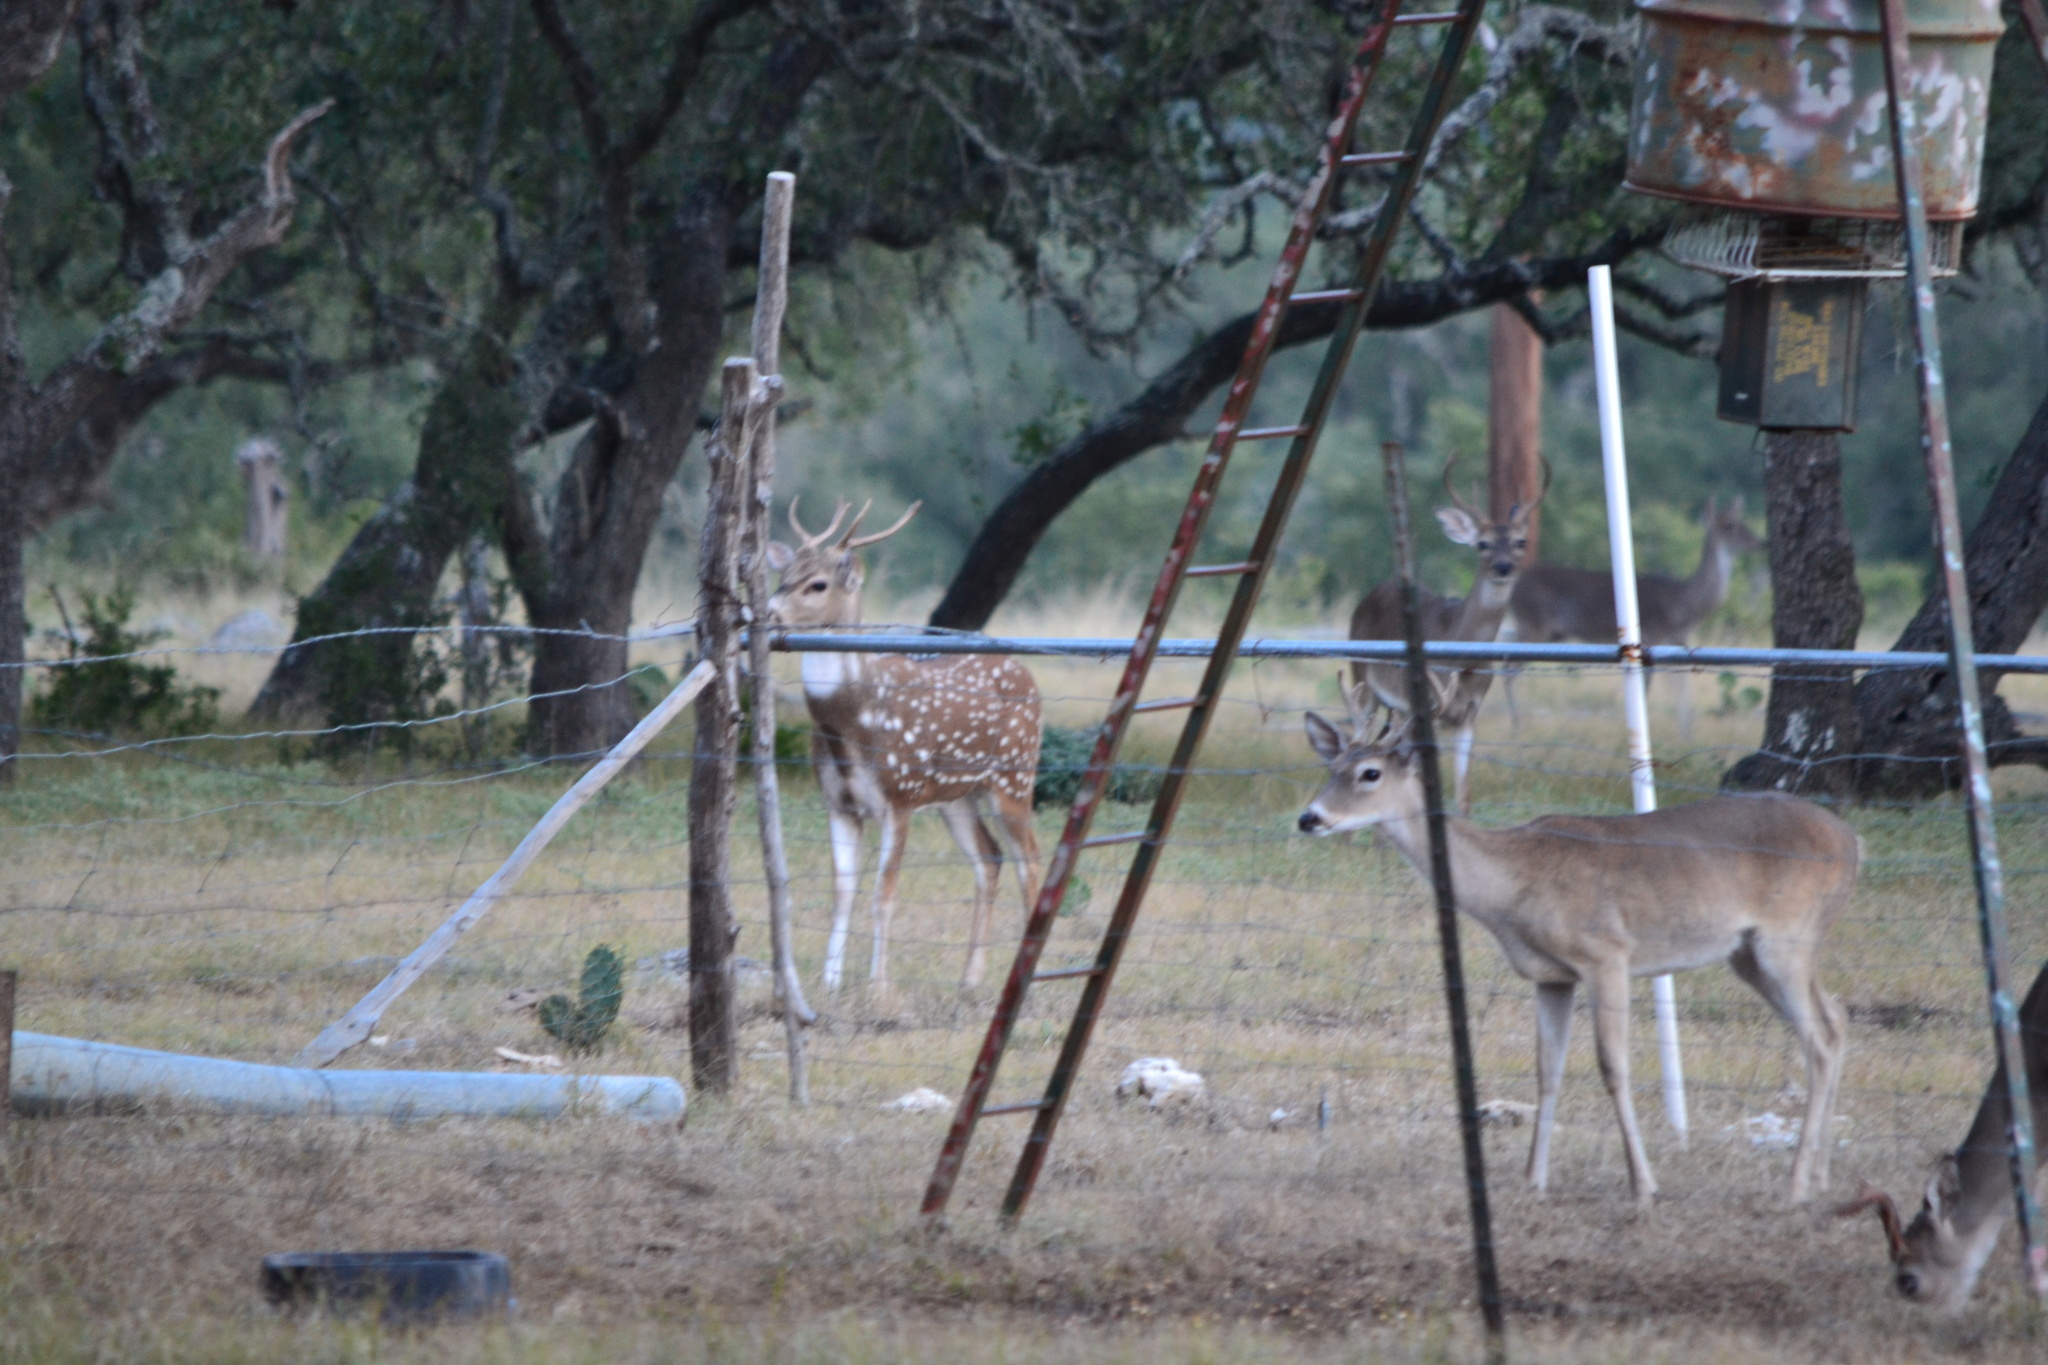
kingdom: Animalia
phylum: Chordata
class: Mammalia
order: Artiodactyla
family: Cervidae
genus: Axis
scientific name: Axis axis
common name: Chital
